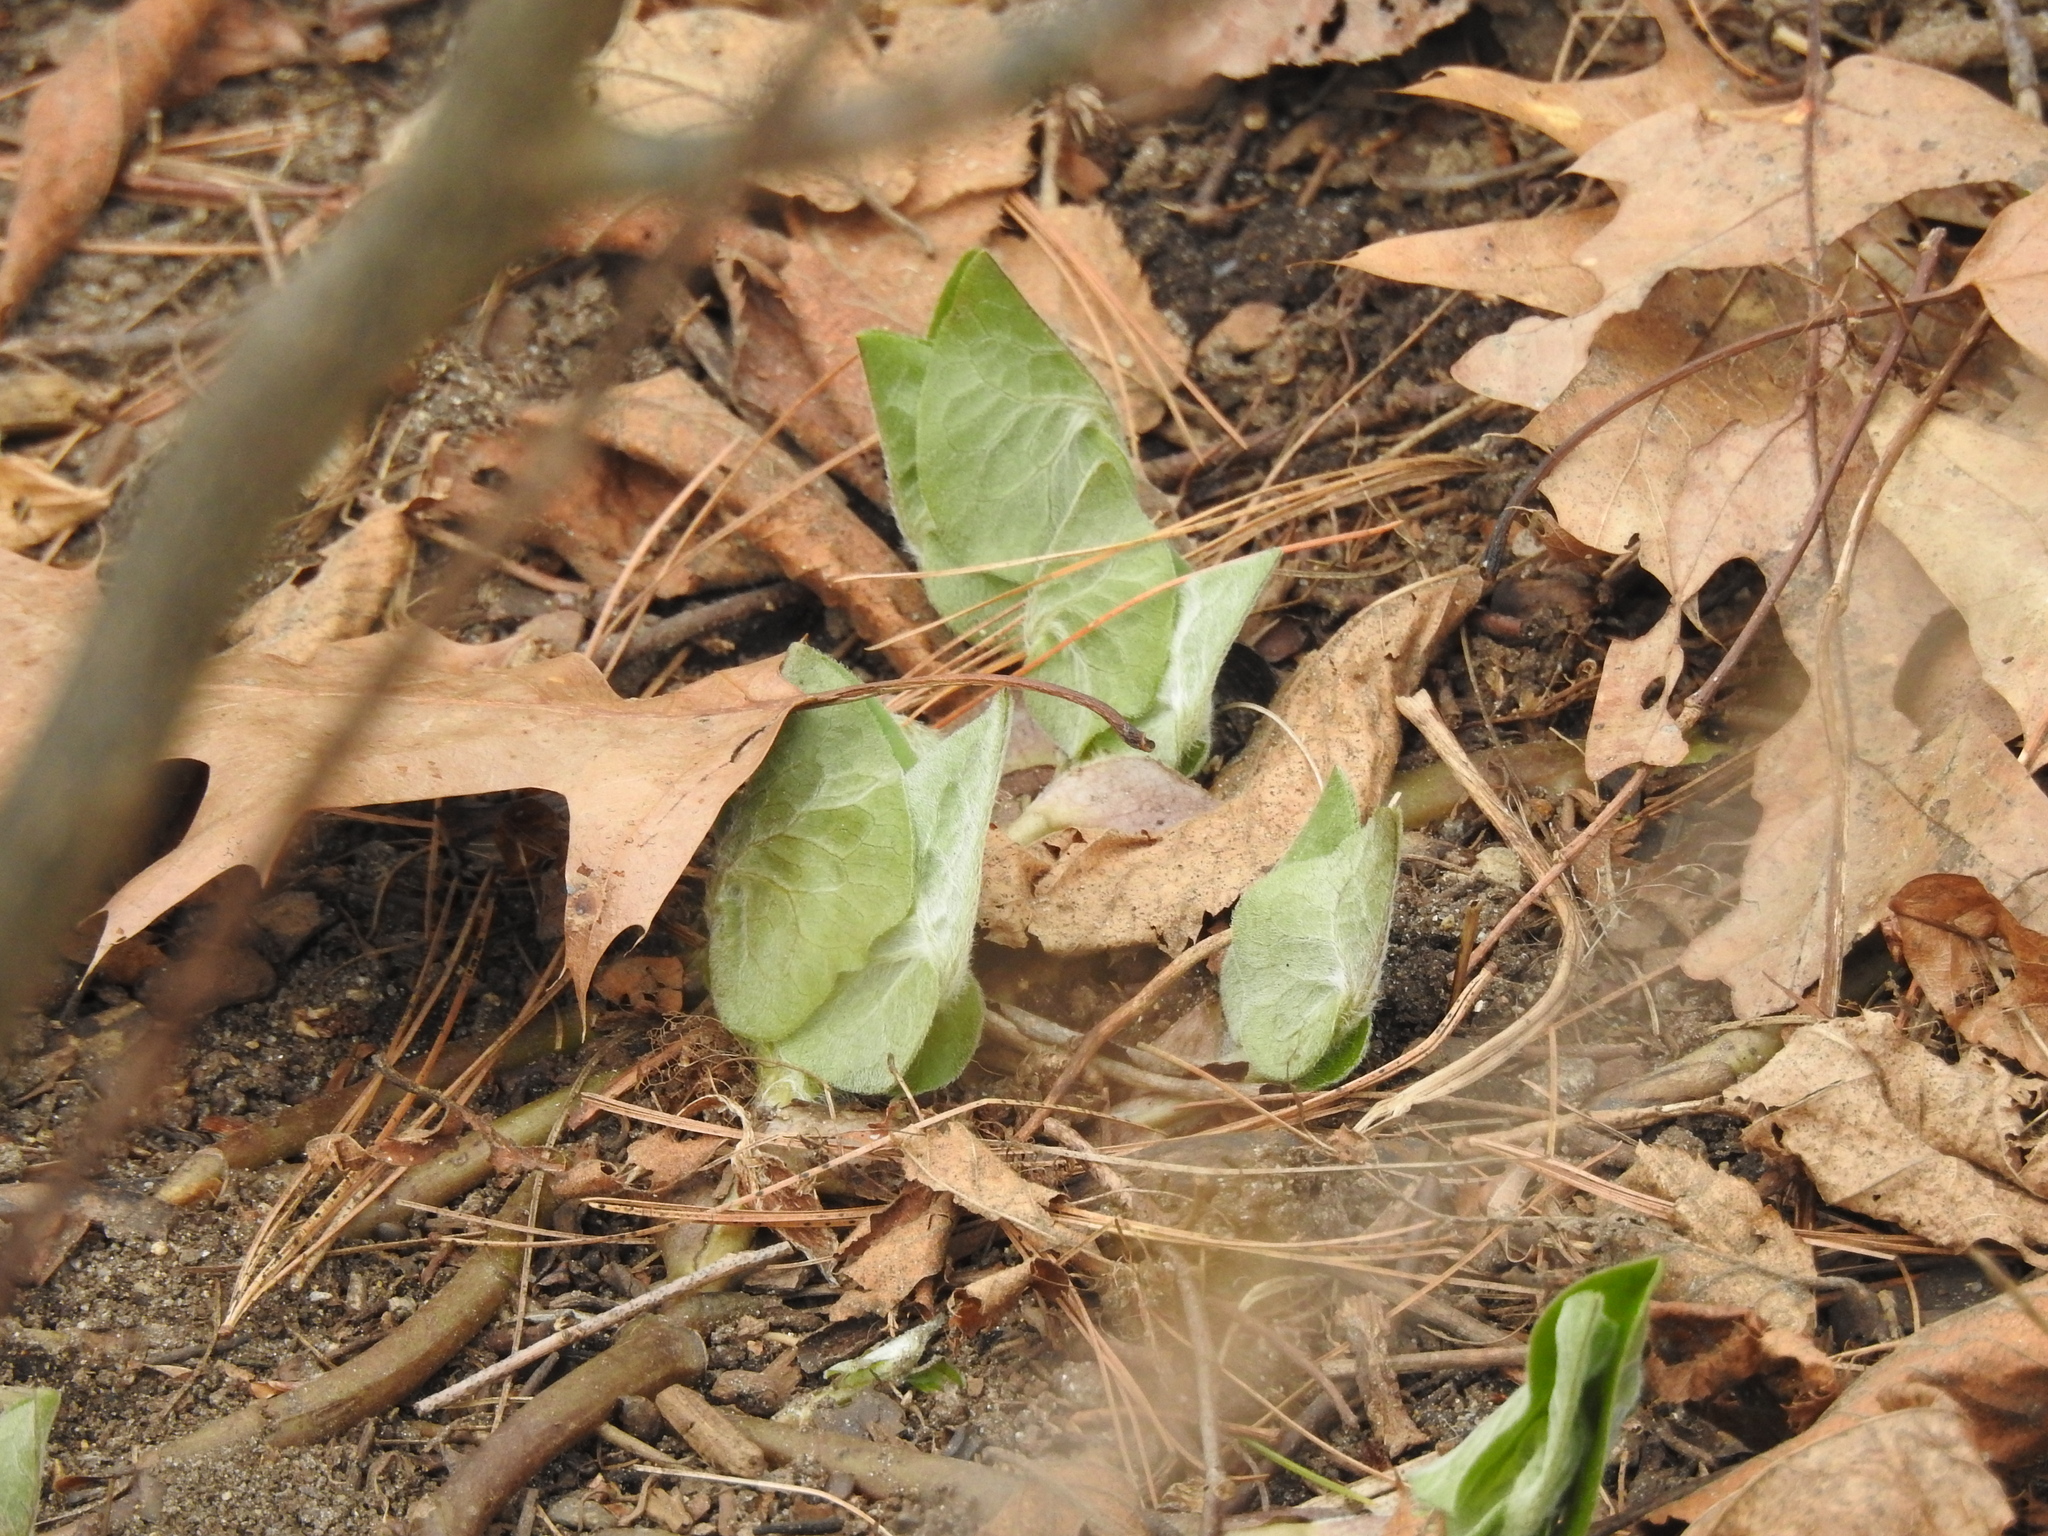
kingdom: Plantae
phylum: Tracheophyta
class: Magnoliopsida
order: Piperales
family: Aristolochiaceae
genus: Asarum
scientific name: Asarum canadense
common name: Wild ginger
